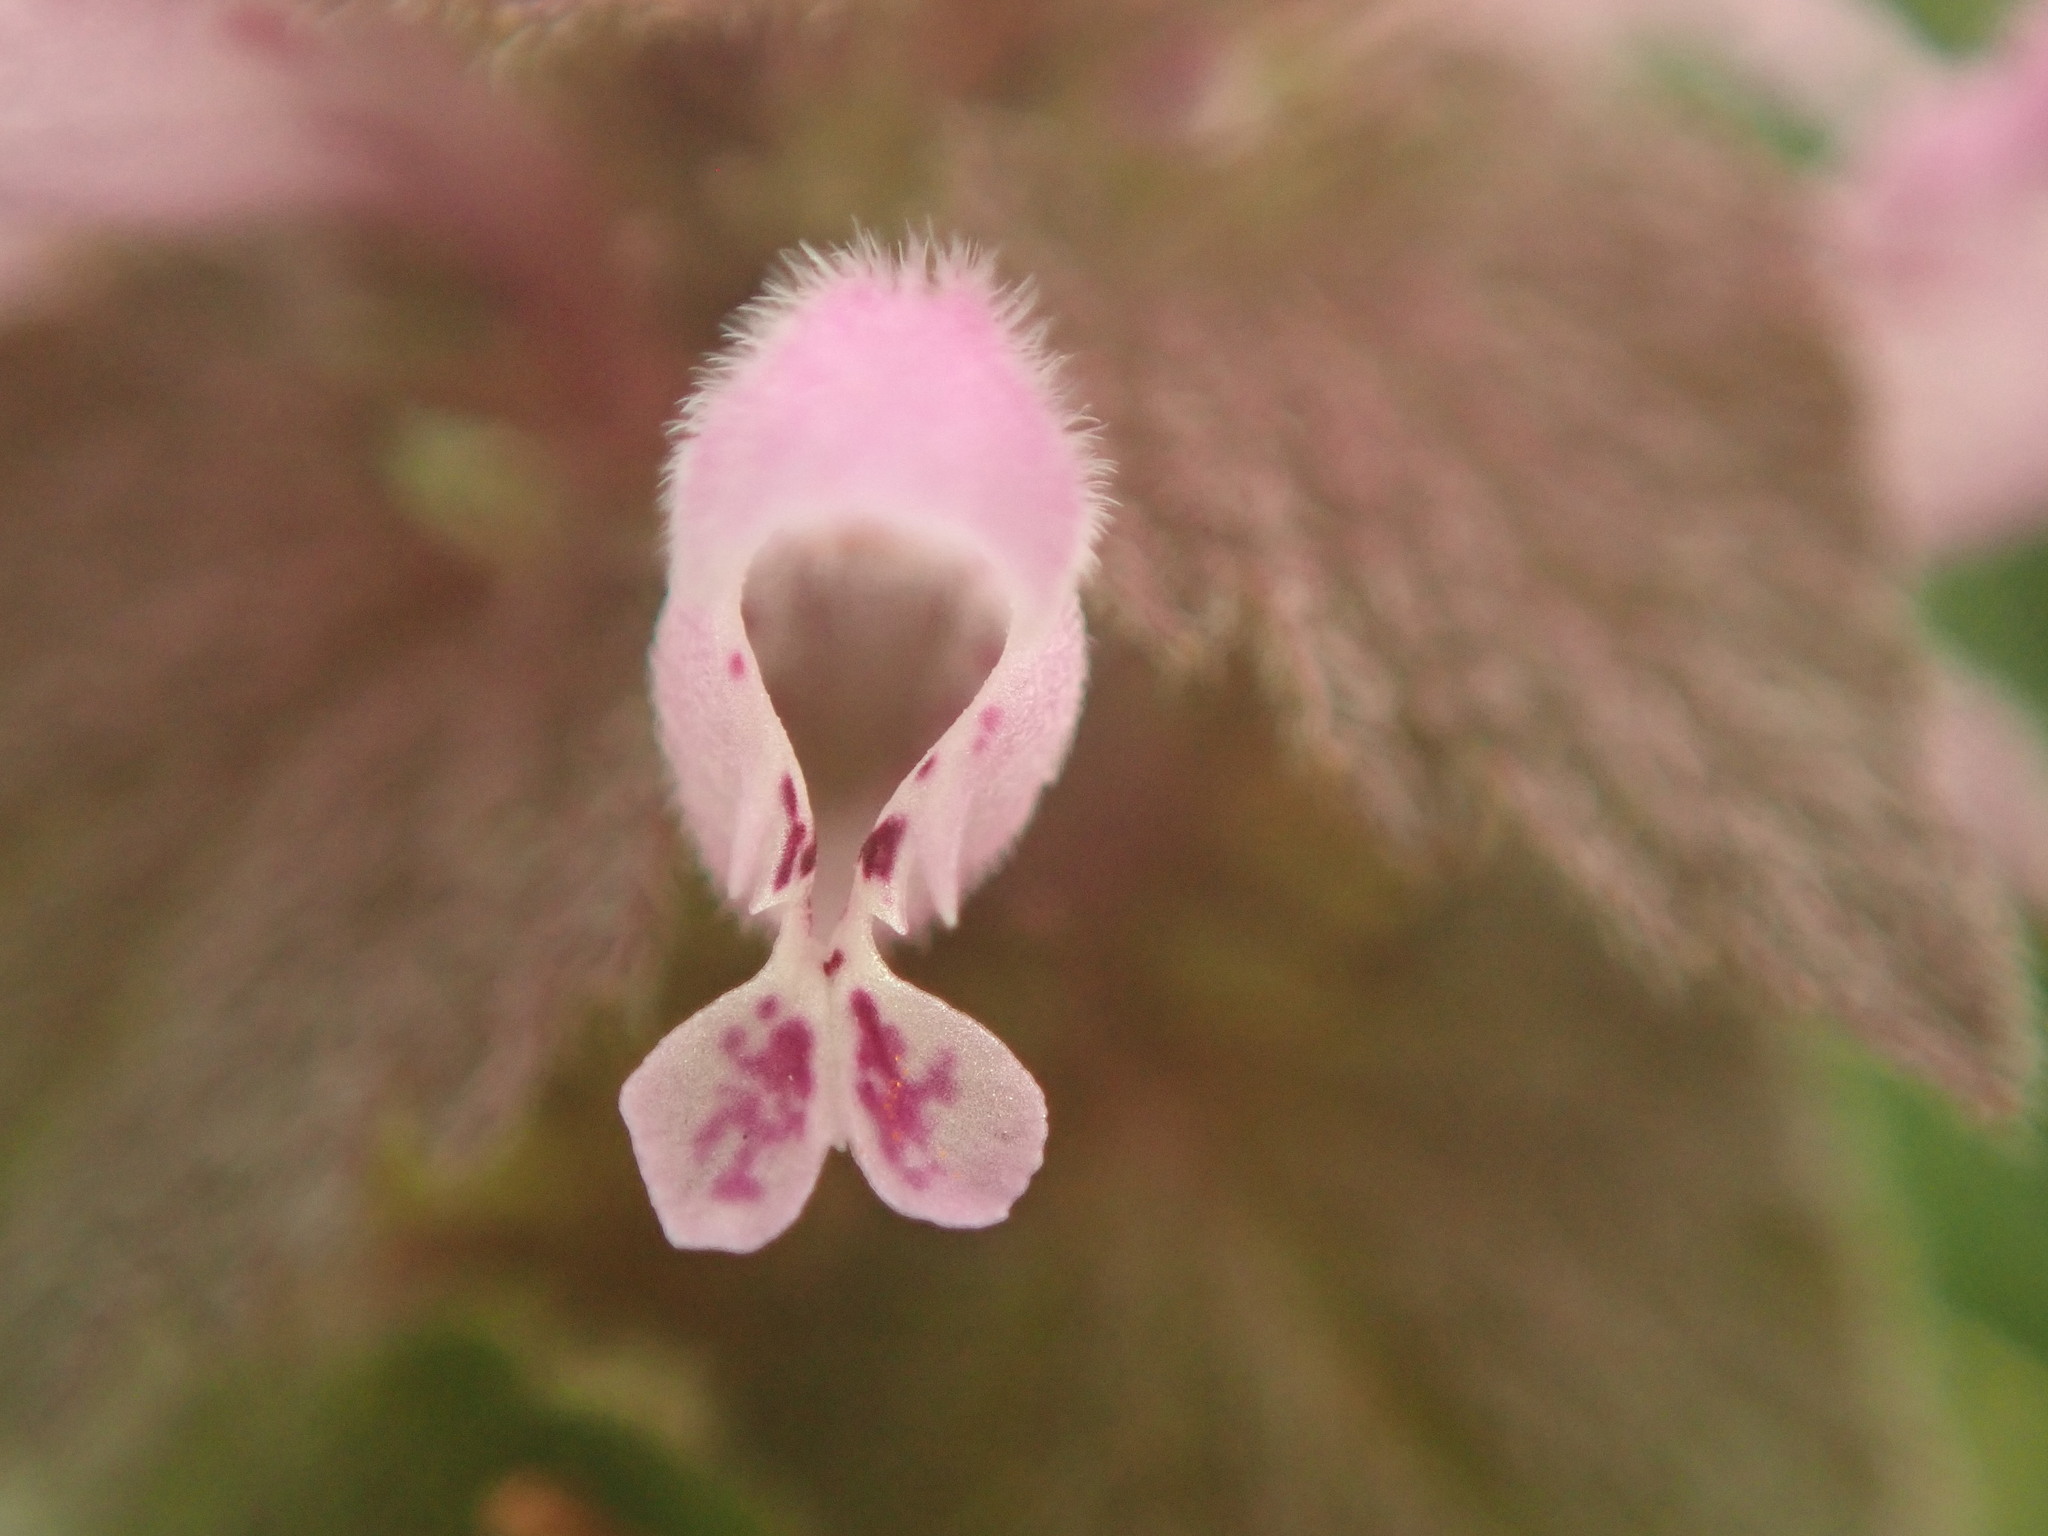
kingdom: Plantae
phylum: Tracheophyta
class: Magnoliopsida
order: Lamiales
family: Lamiaceae
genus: Lamium
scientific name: Lamium purpureum
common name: Red dead-nettle
